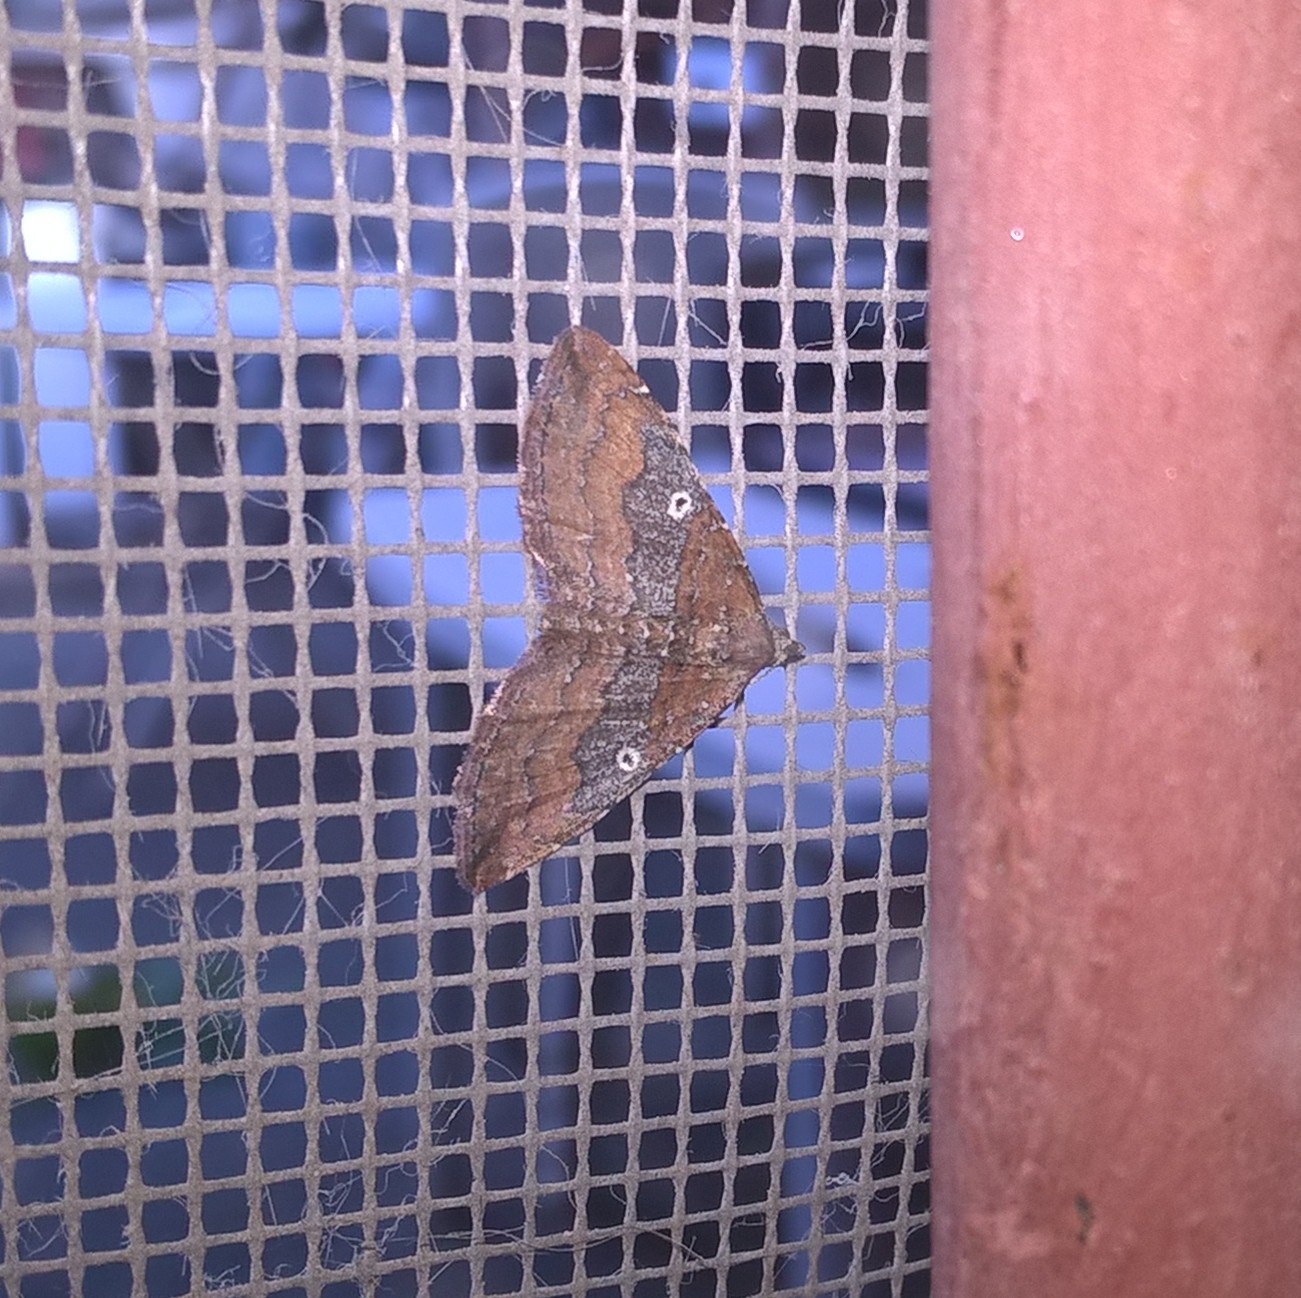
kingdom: Animalia
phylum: Arthropoda
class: Insecta
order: Lepidoptera
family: Geometridae
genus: Orthonama
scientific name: Orthonama obstipata
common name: The gem
